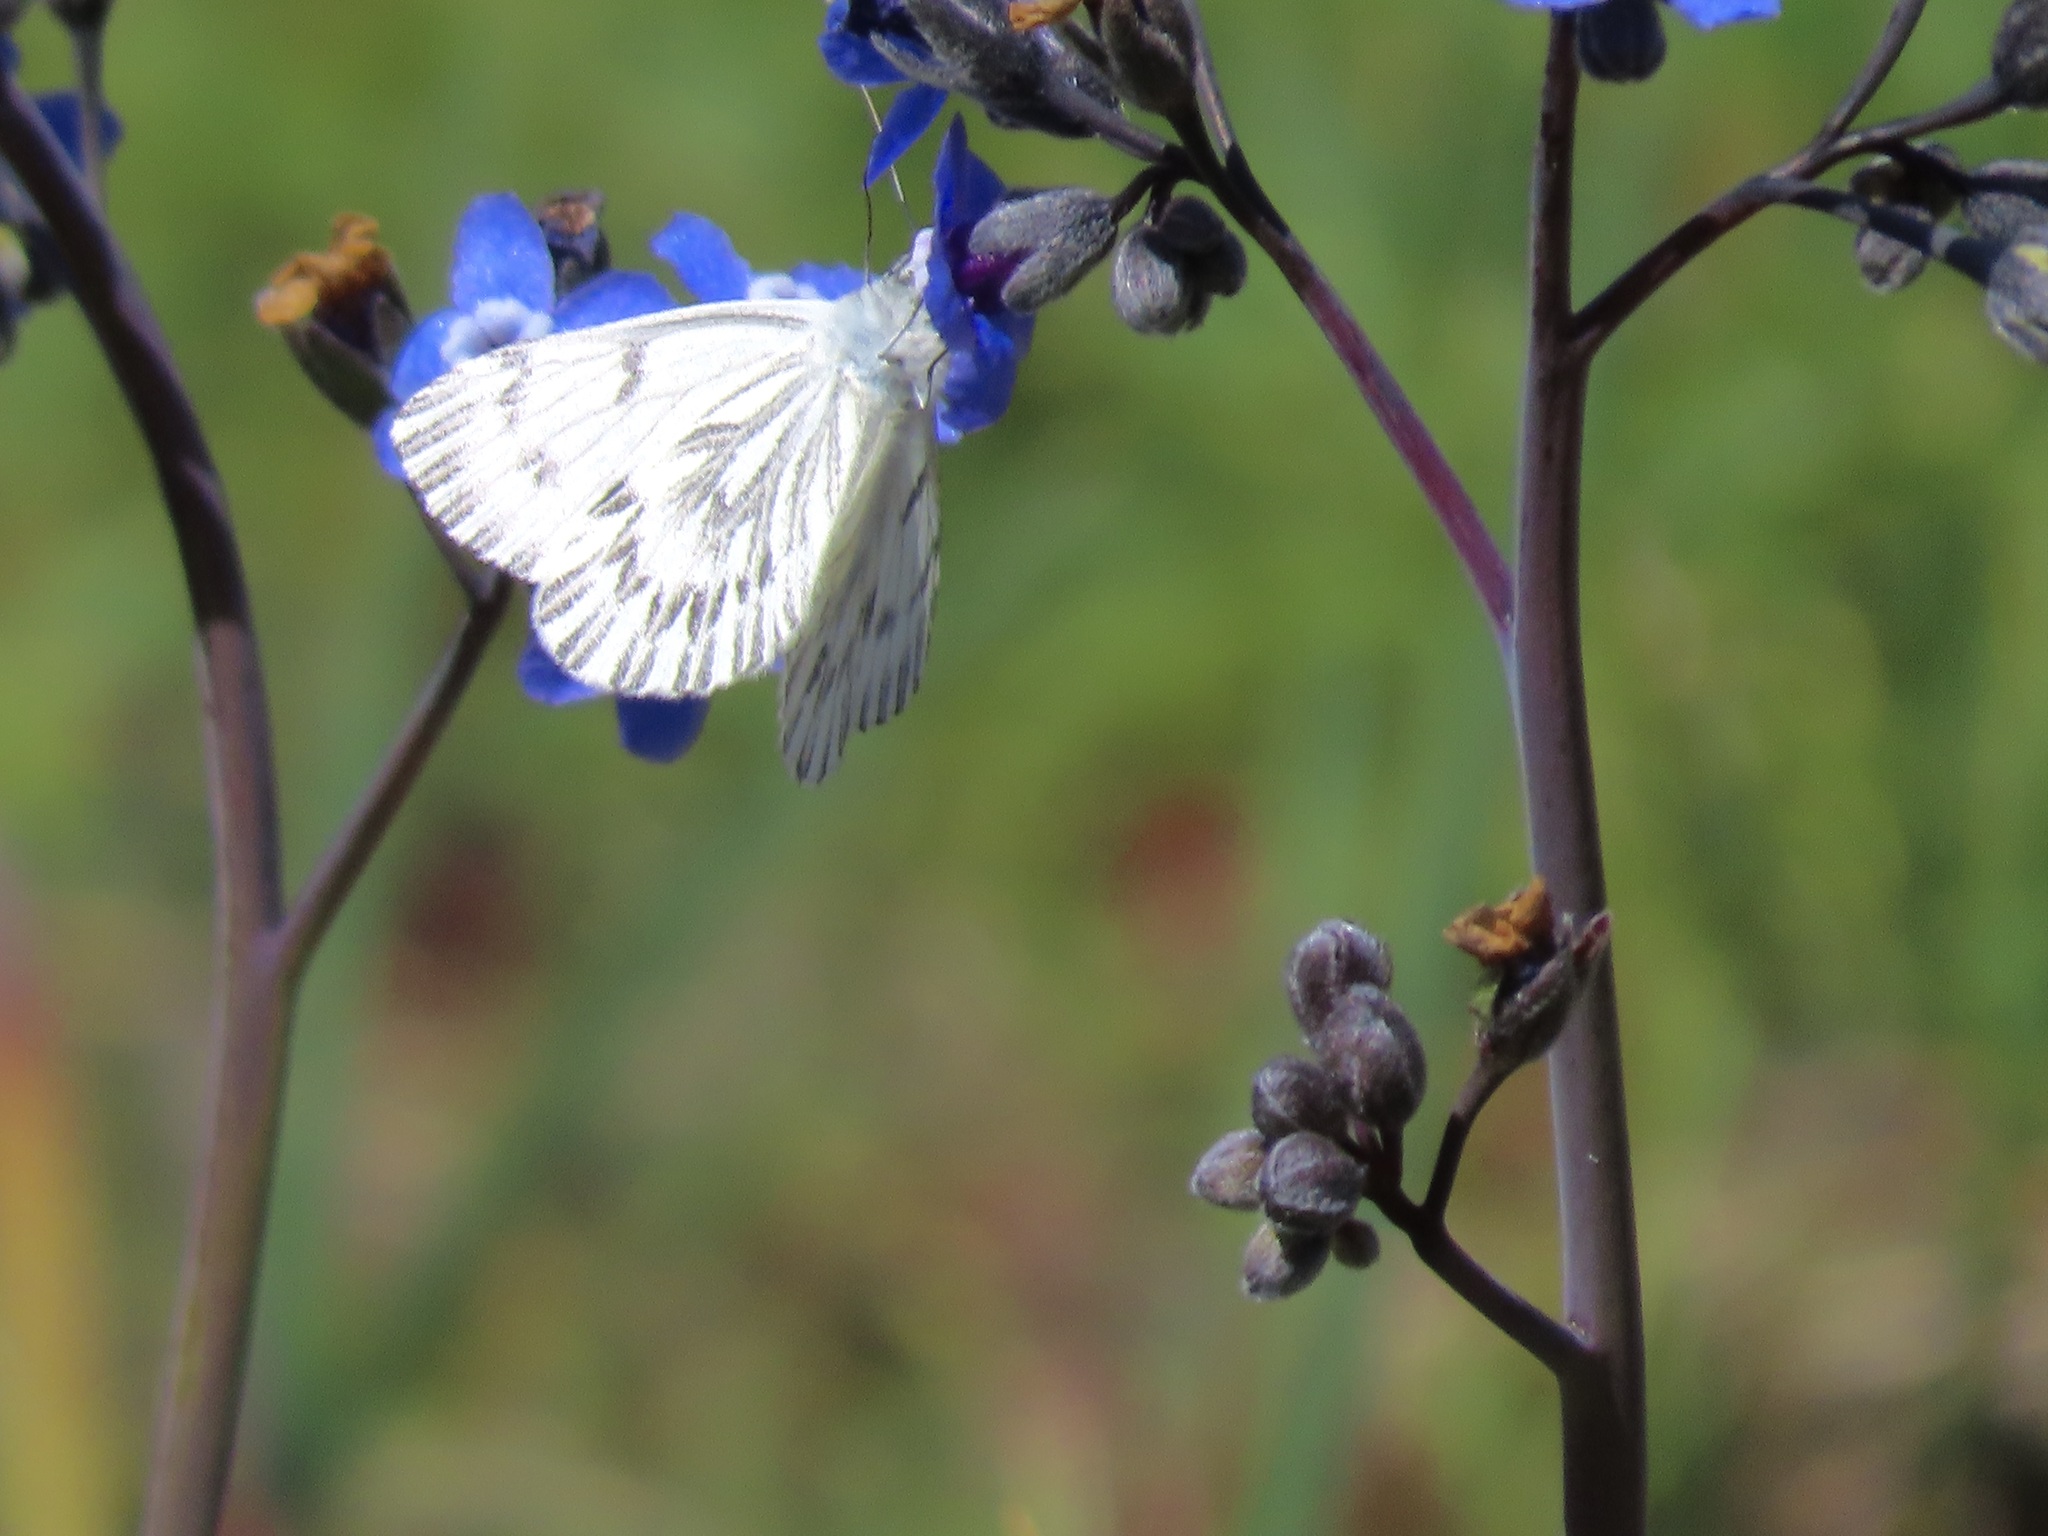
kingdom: Animalia
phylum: Arthropoda
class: Insecta
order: Lepidoptera
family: Pieridae
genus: Pontia
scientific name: Pontia sisymbrii
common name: California white
